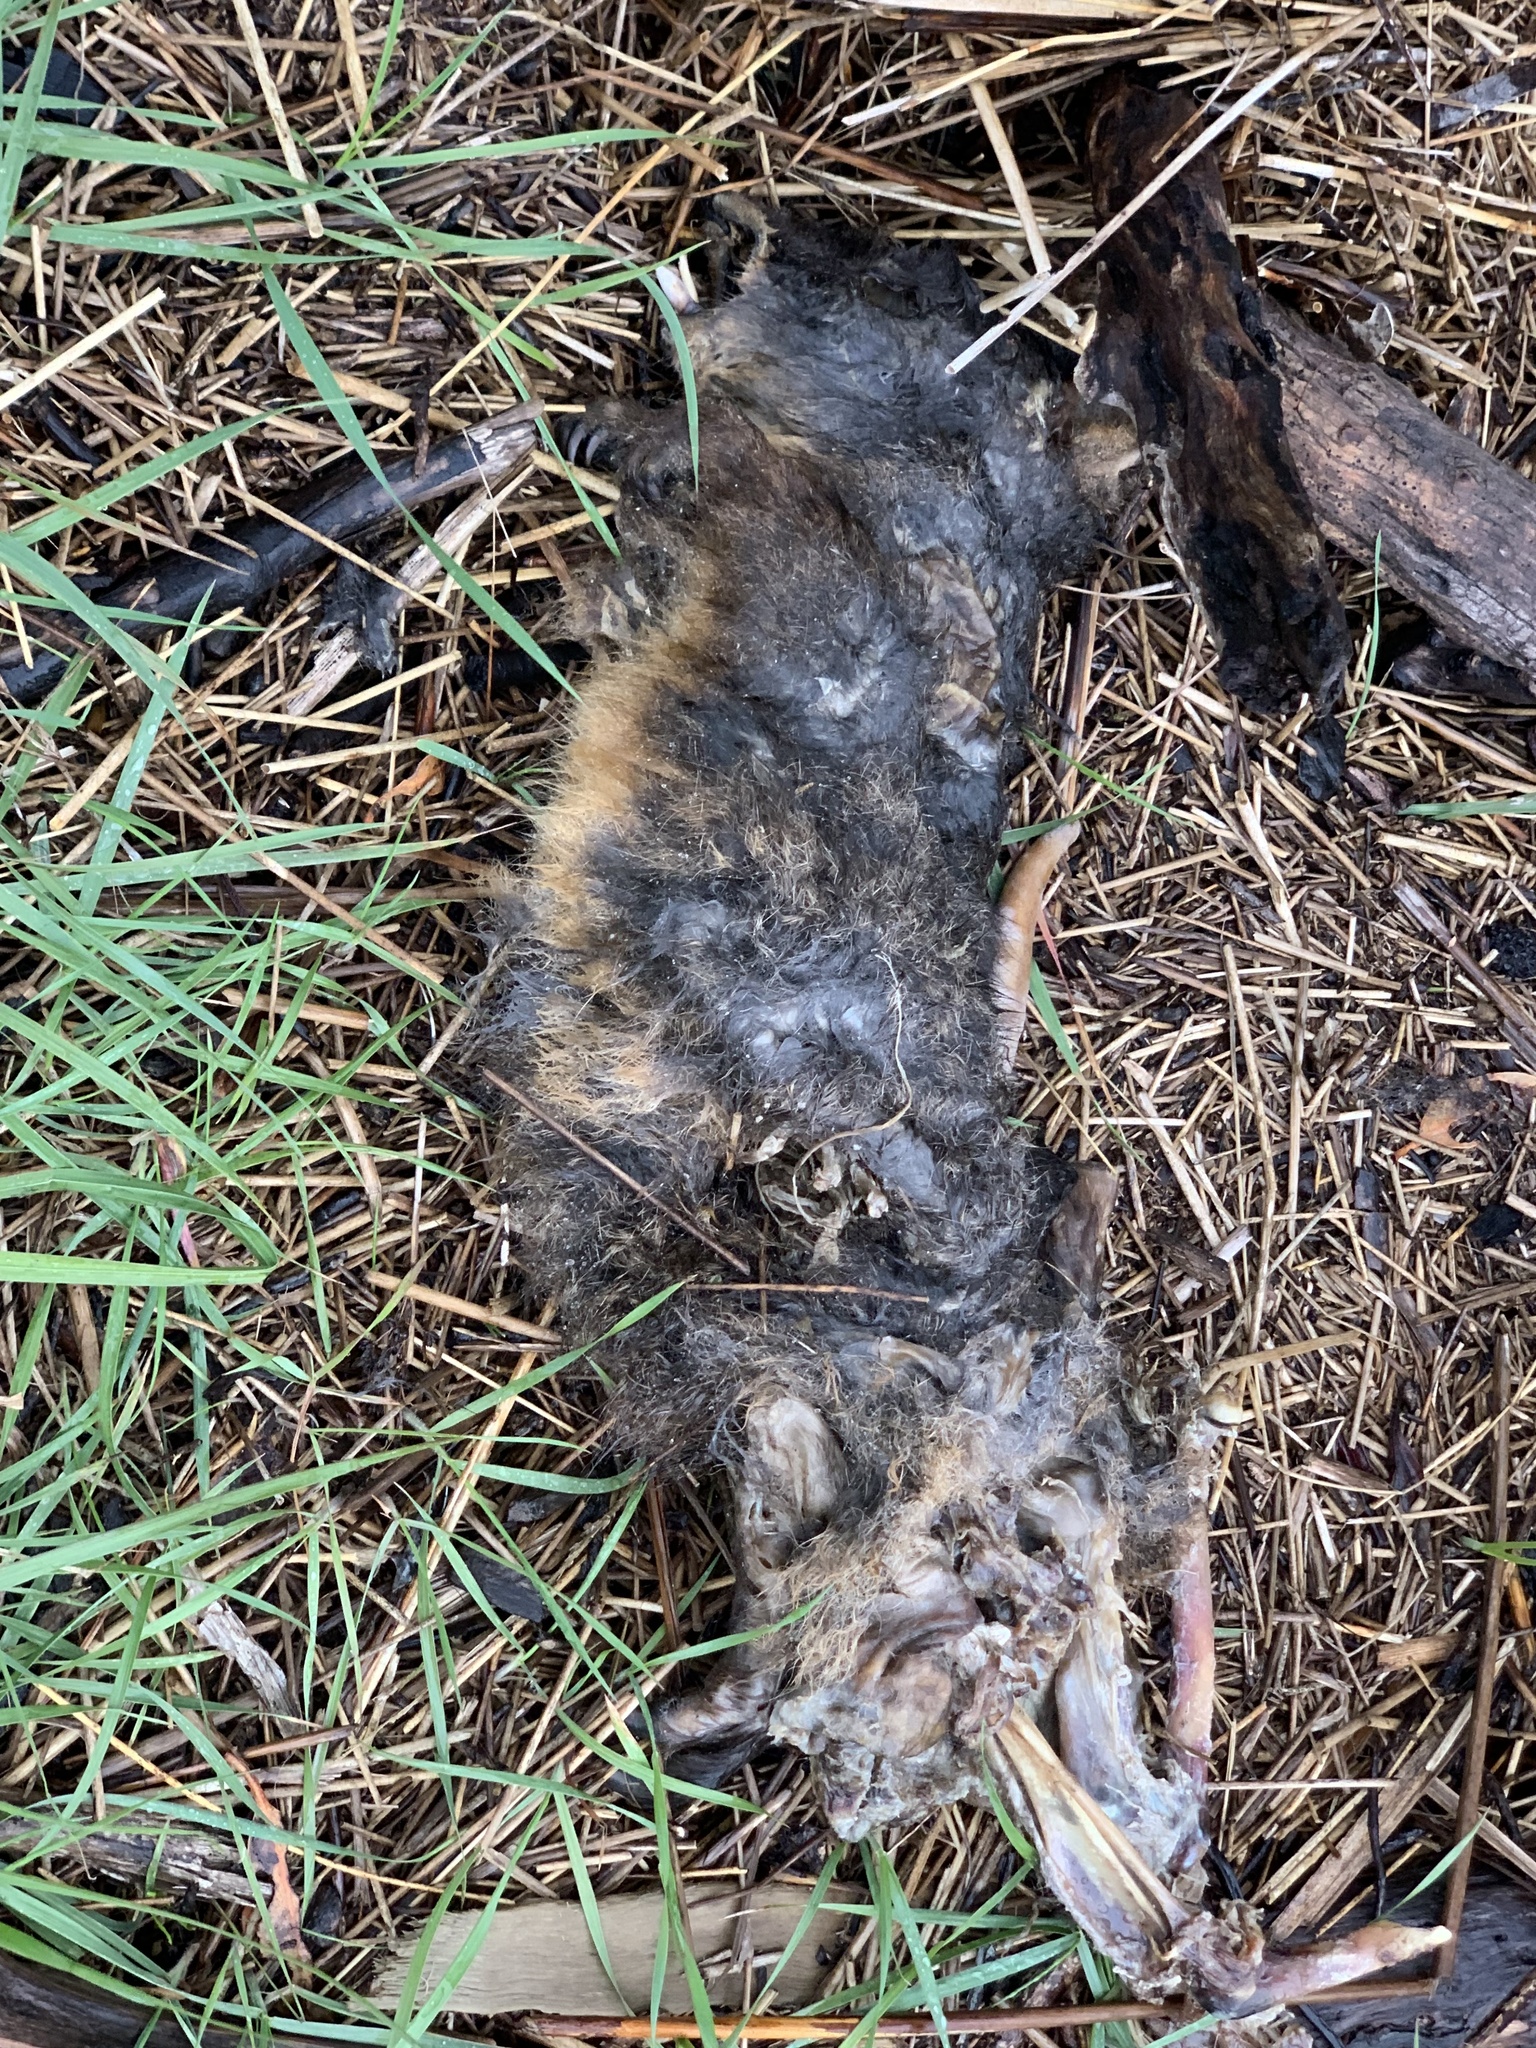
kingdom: Animalia
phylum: Chordata
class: Mammalia
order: Diprotodontia
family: Macropodidae
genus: Thylogale
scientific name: Thylogale billardierii
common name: Tasmanian pademelon
